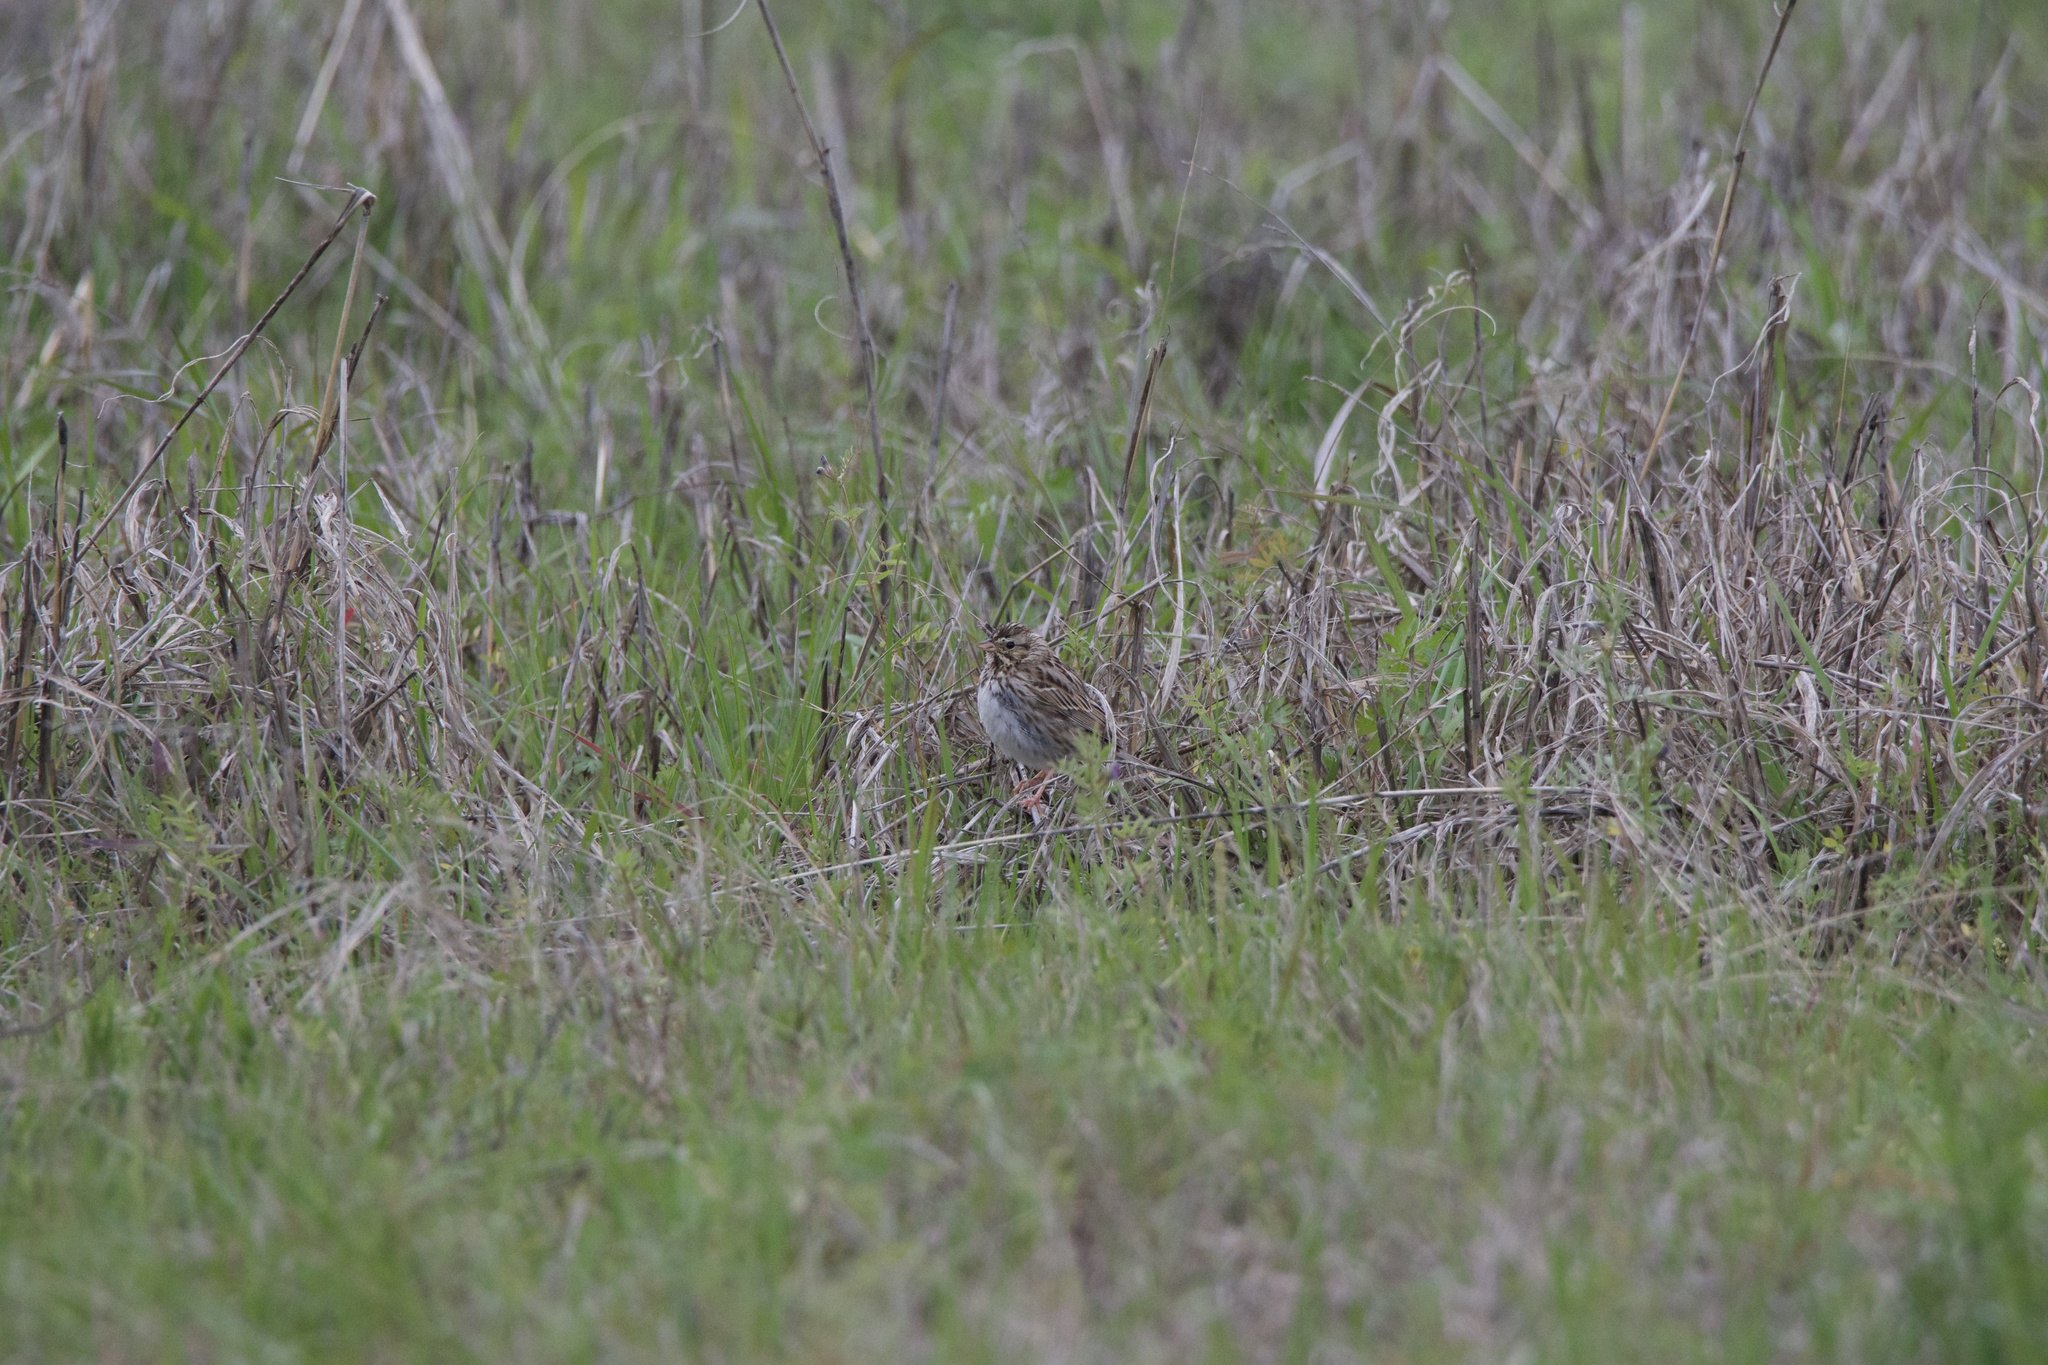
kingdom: Animalia
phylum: Chordata
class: Aves
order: Passeriformes
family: Passerellidae
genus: Passerculus
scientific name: Passerculus sandwichensis
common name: Savannah sparrow
